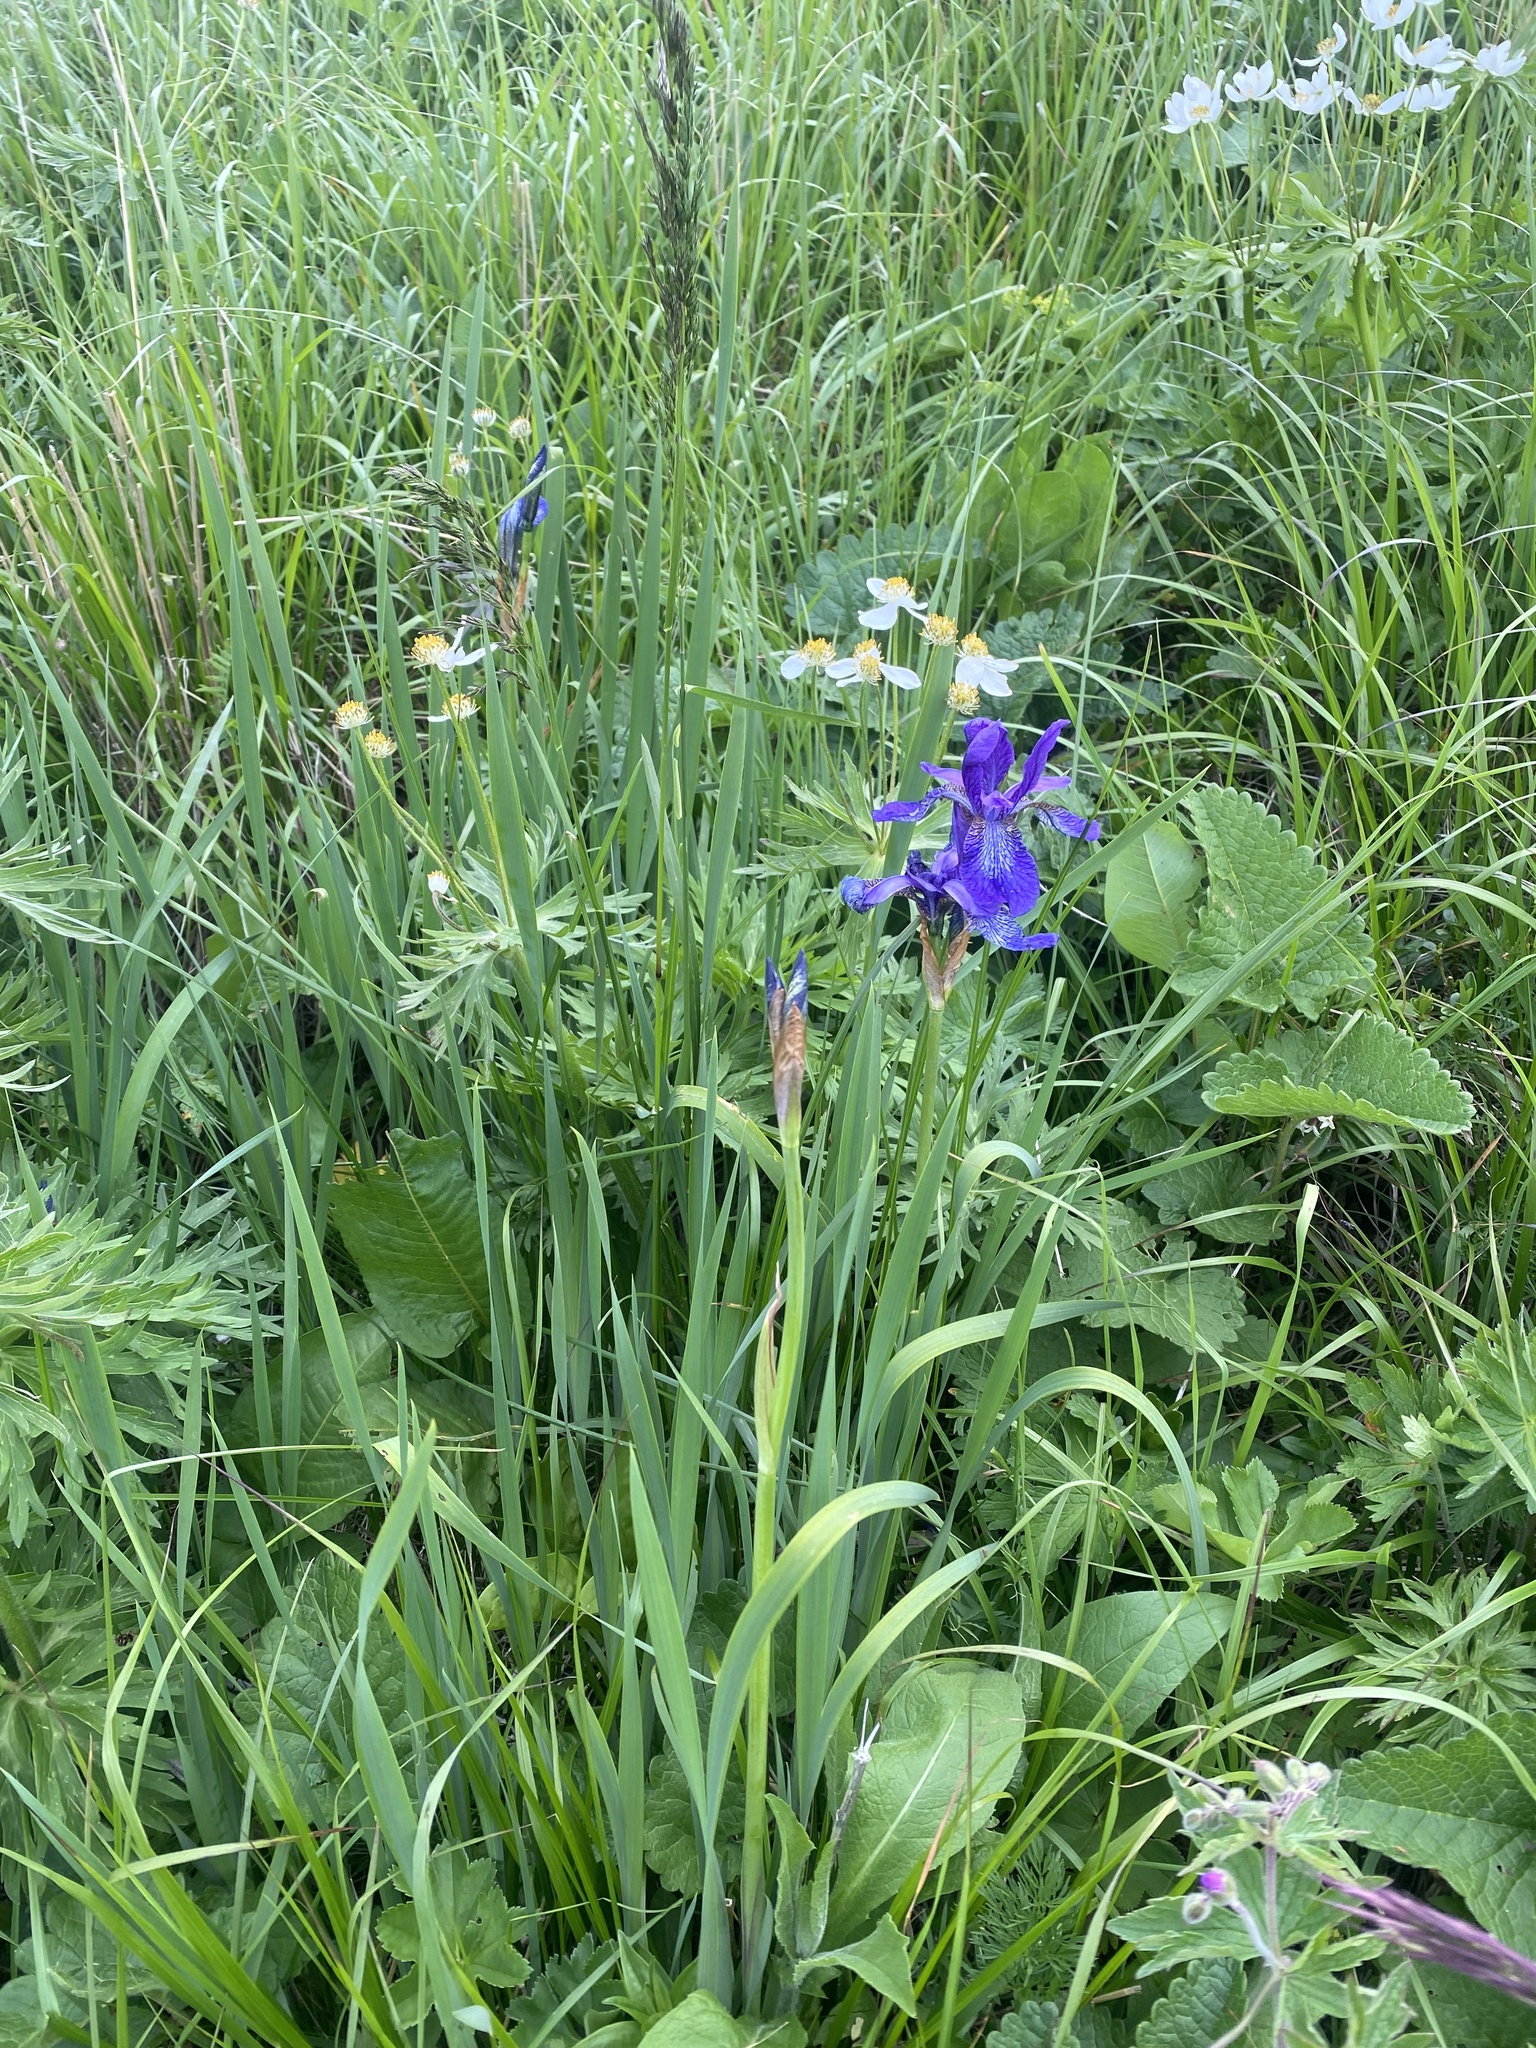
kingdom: Plantae
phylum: Tracheophyta
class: Liliopsida
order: Asparagales
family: Iridaceae
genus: Iris
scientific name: Iris sibirica
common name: Siberian iris
